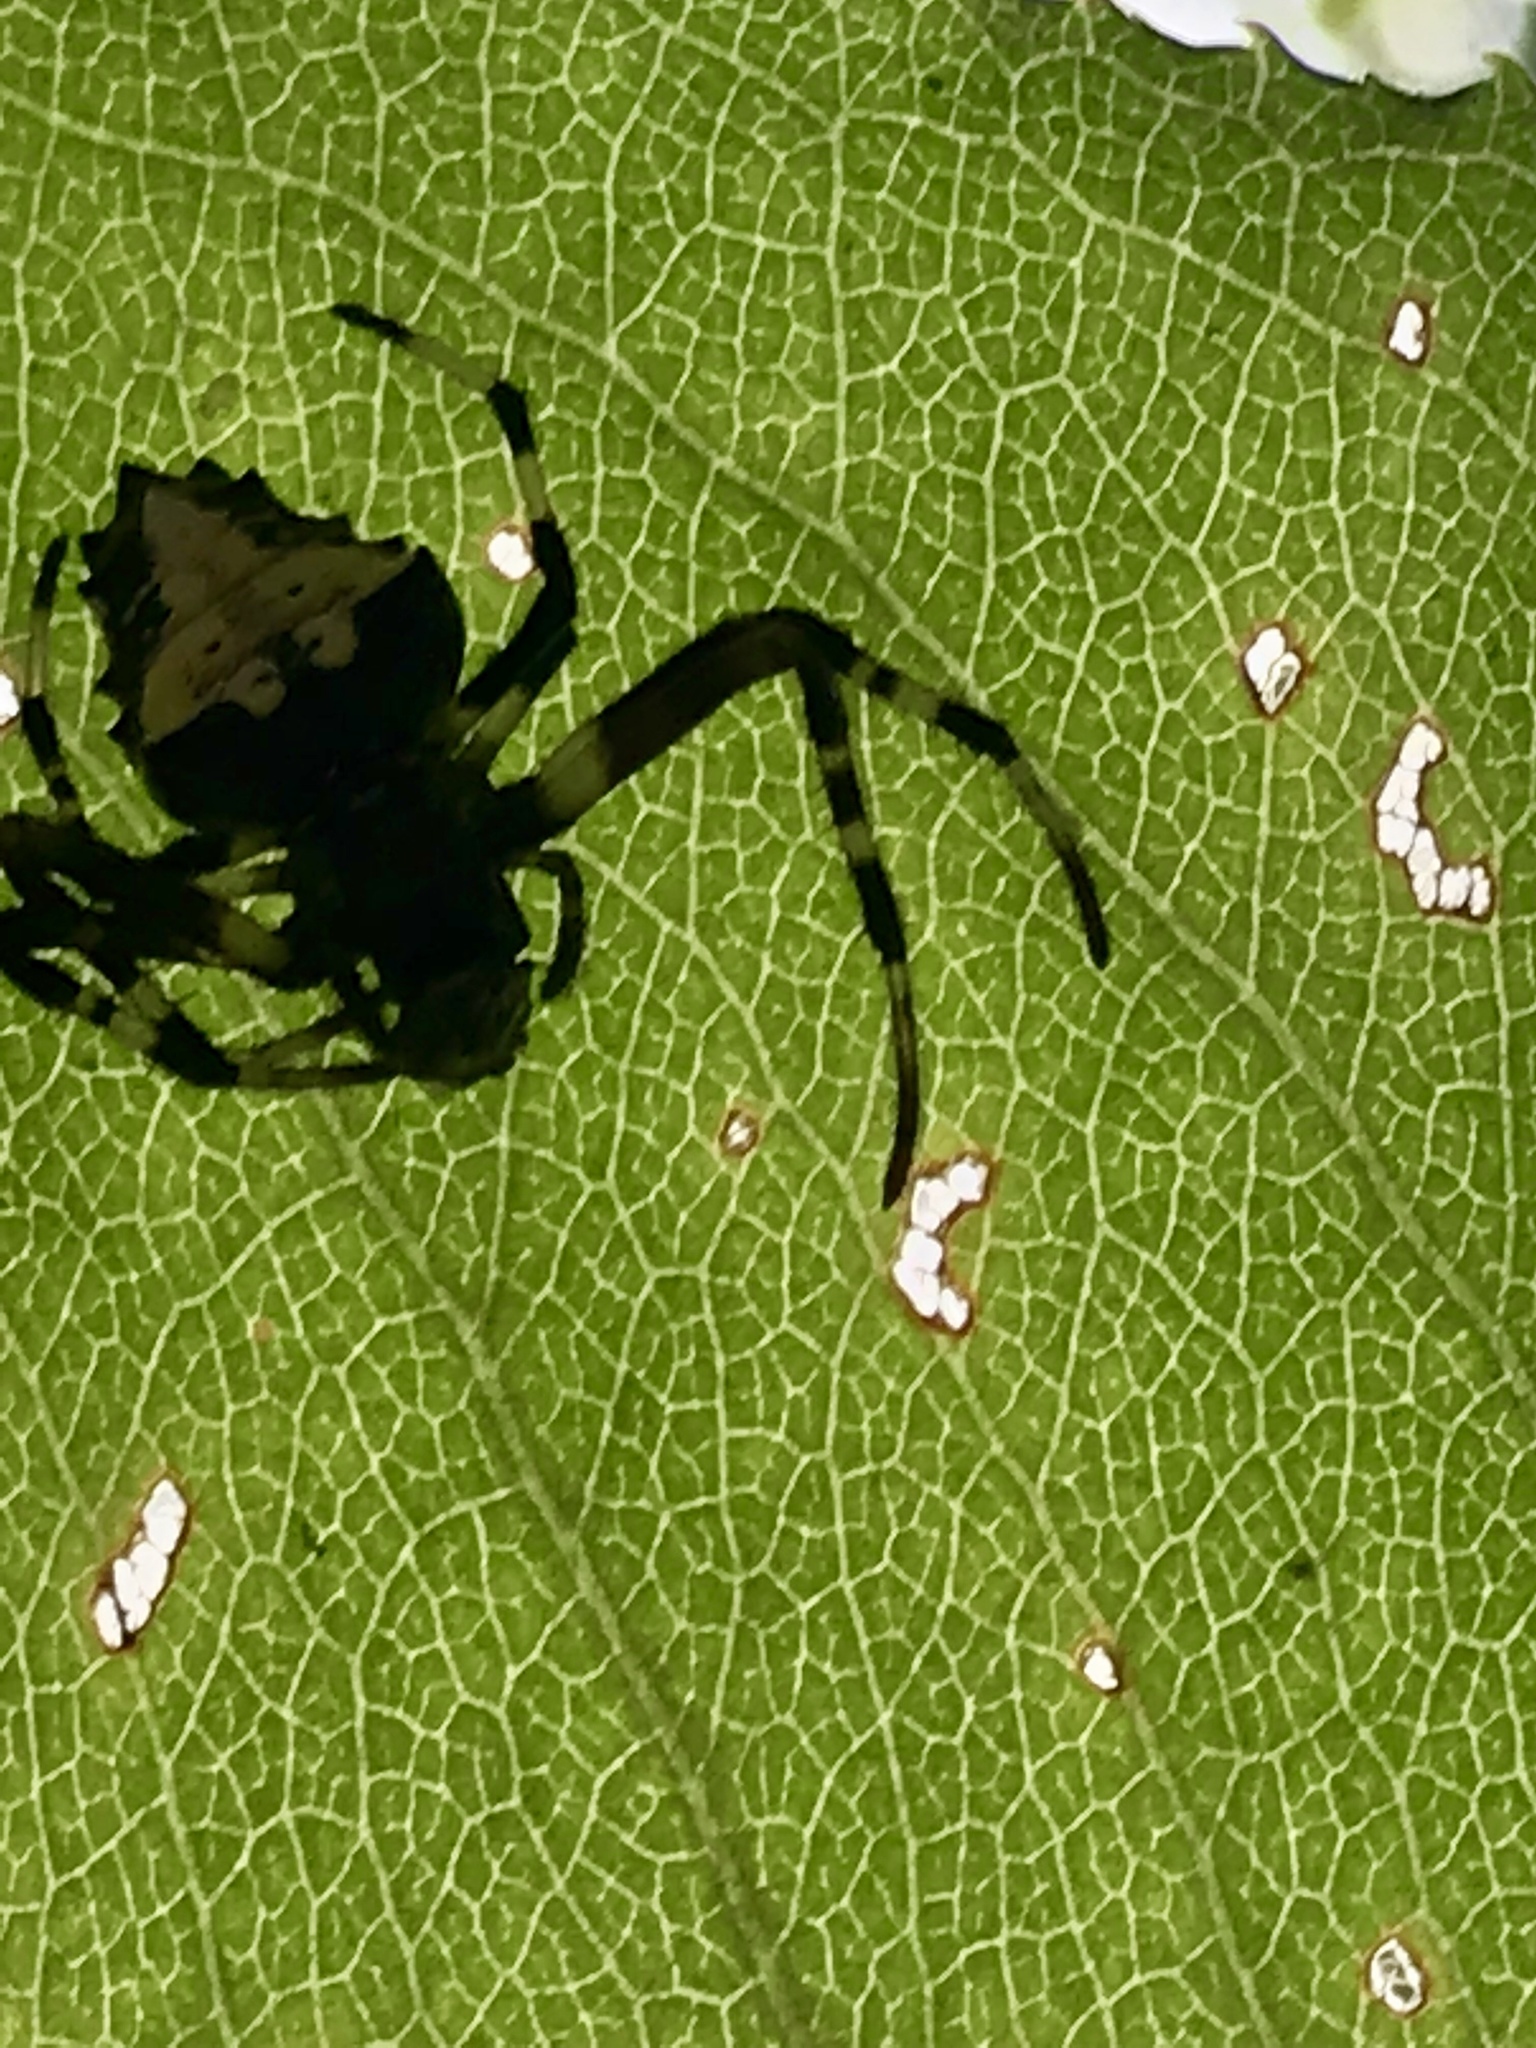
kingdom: Animalia
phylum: Arthropoda
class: Arachnida
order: Araneae
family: Araneidae
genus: Verrucosa
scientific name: Verrucosa arenata
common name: Orb weavers
